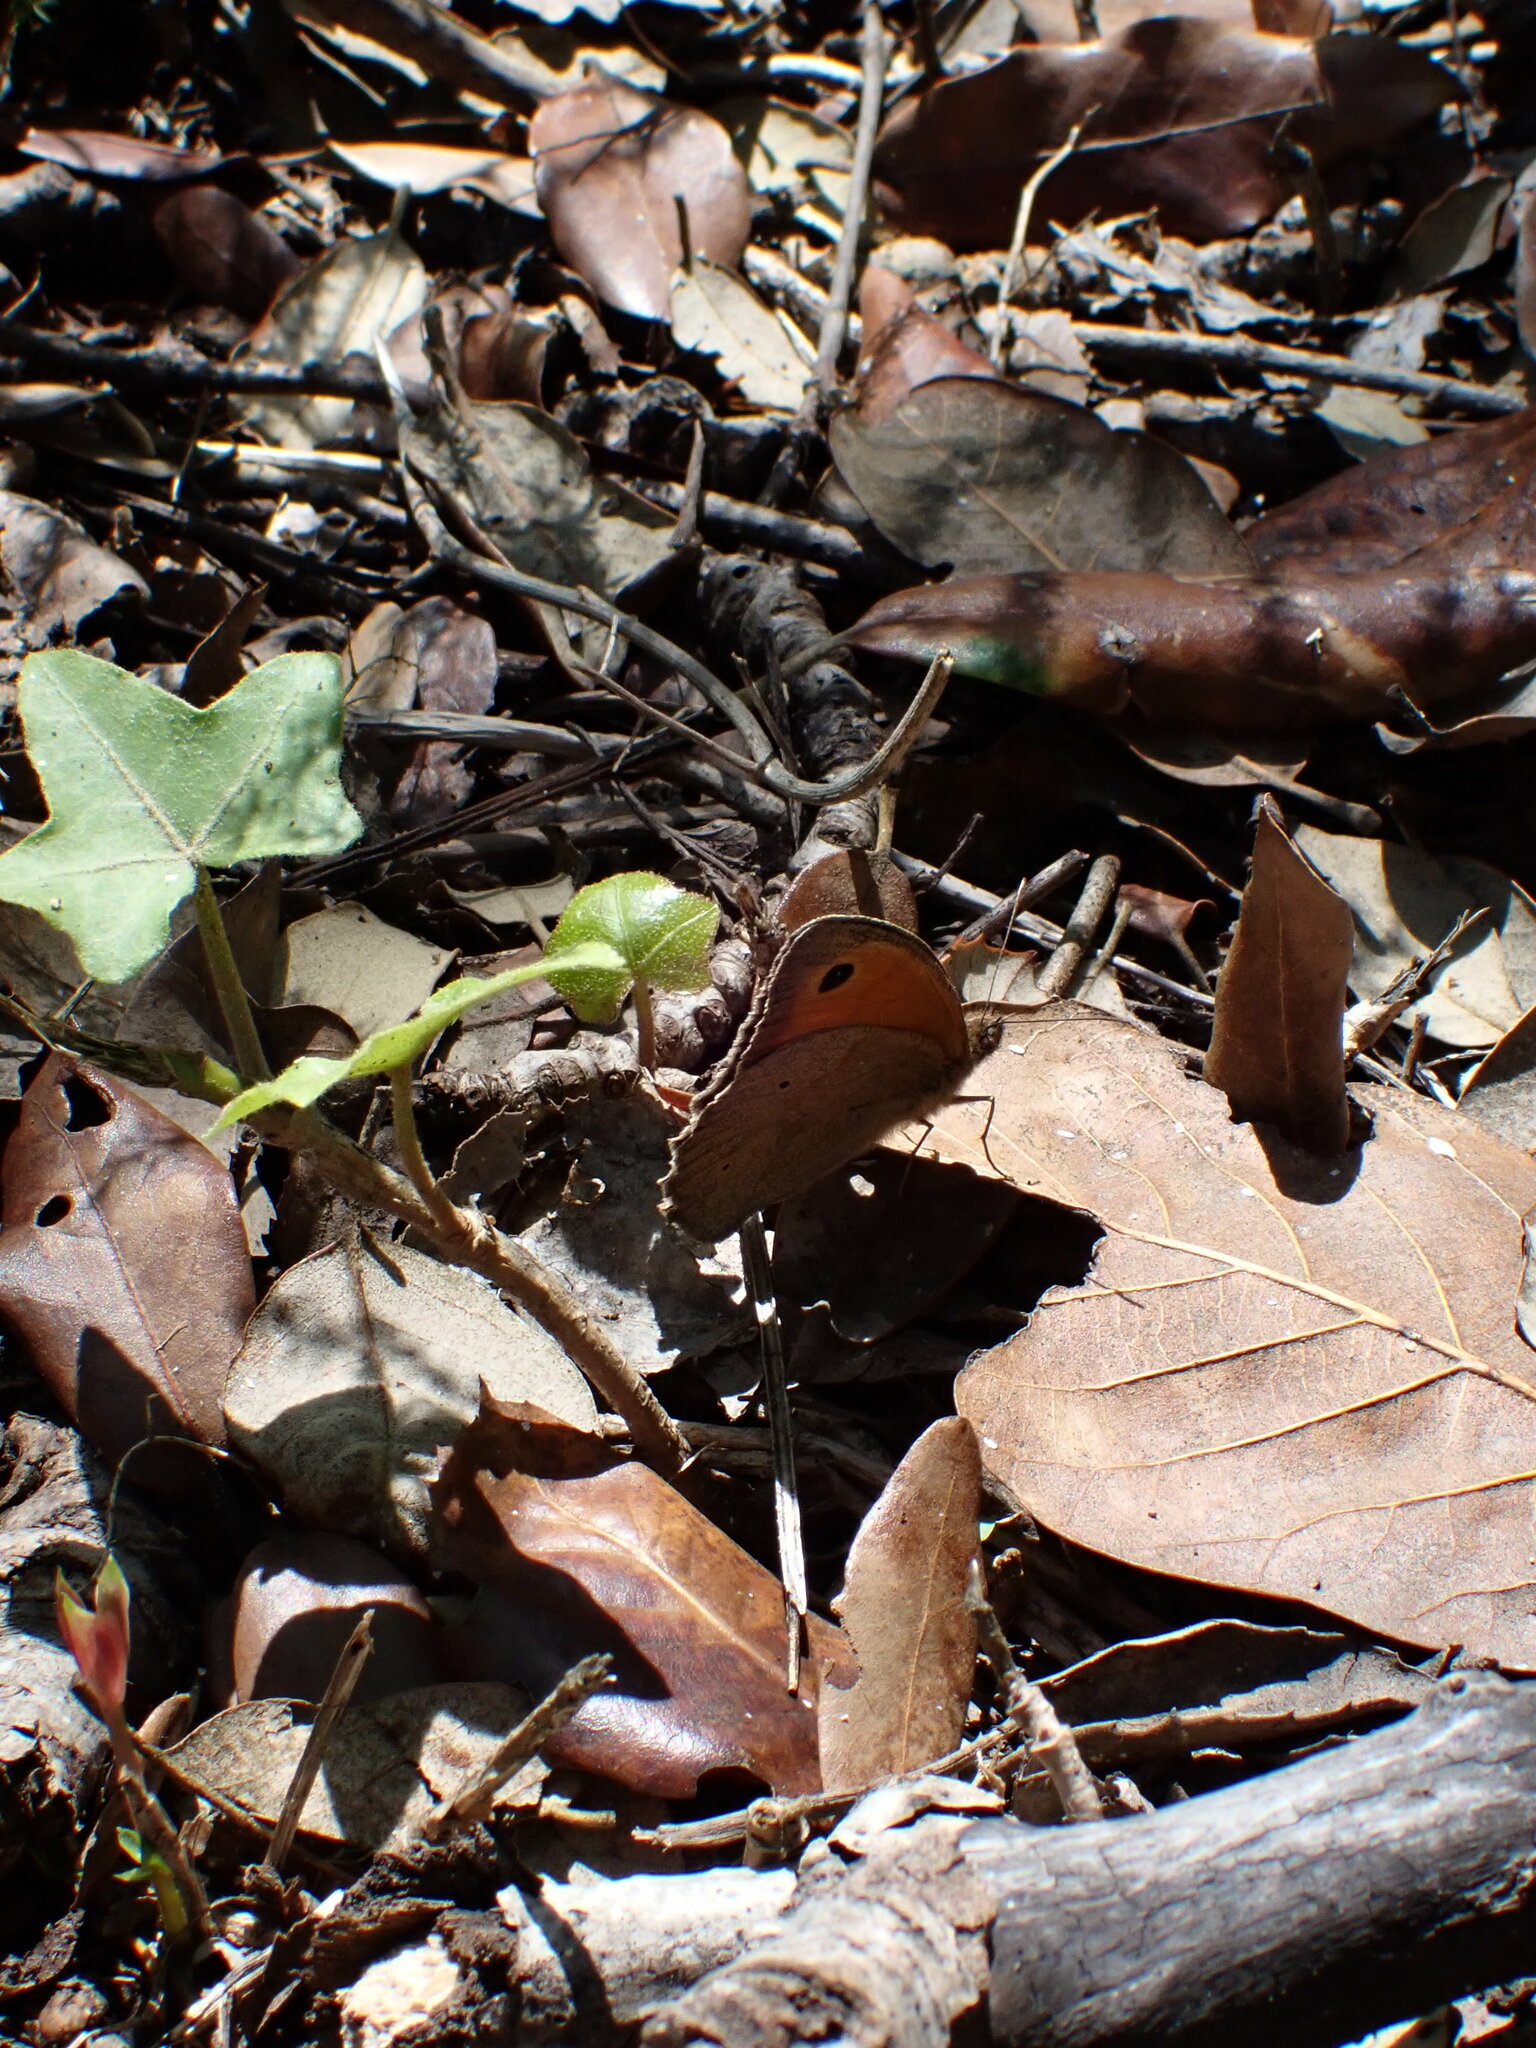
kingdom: Animalia
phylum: Arthropoda
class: Insecta
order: Lepidoptera
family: Nymphalidae
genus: Maniola
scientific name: Maniola jurtina
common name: Meadow brown
